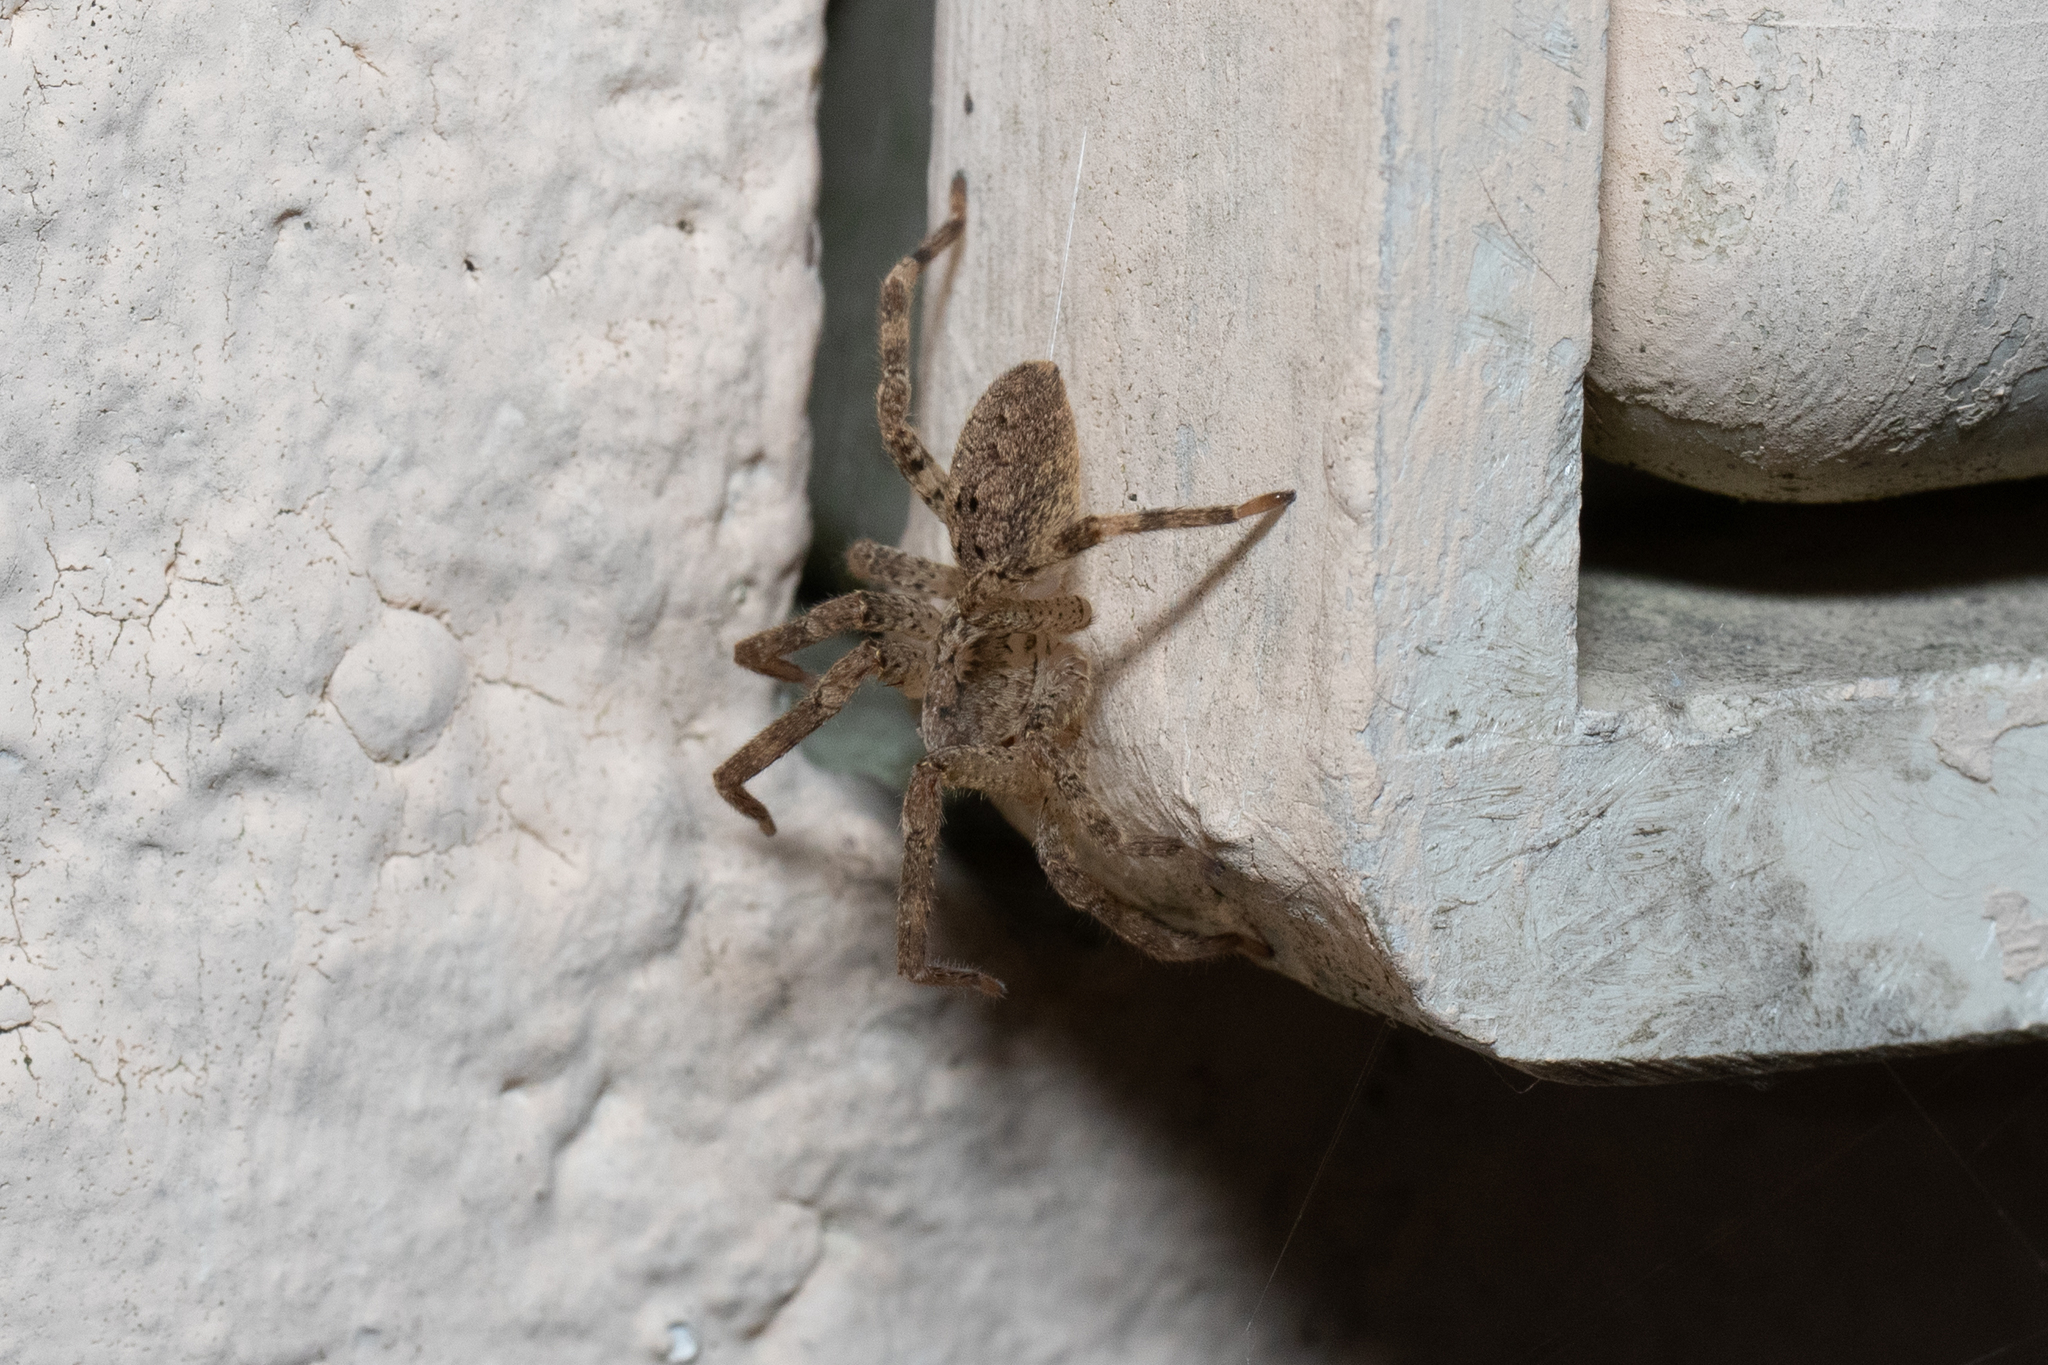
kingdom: Animalia
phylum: Arthropoda
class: Arachnida
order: Araneae
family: Zoropsidae
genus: Zoropsis
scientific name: Zoropsis spinimana
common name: Zoropsid spider
